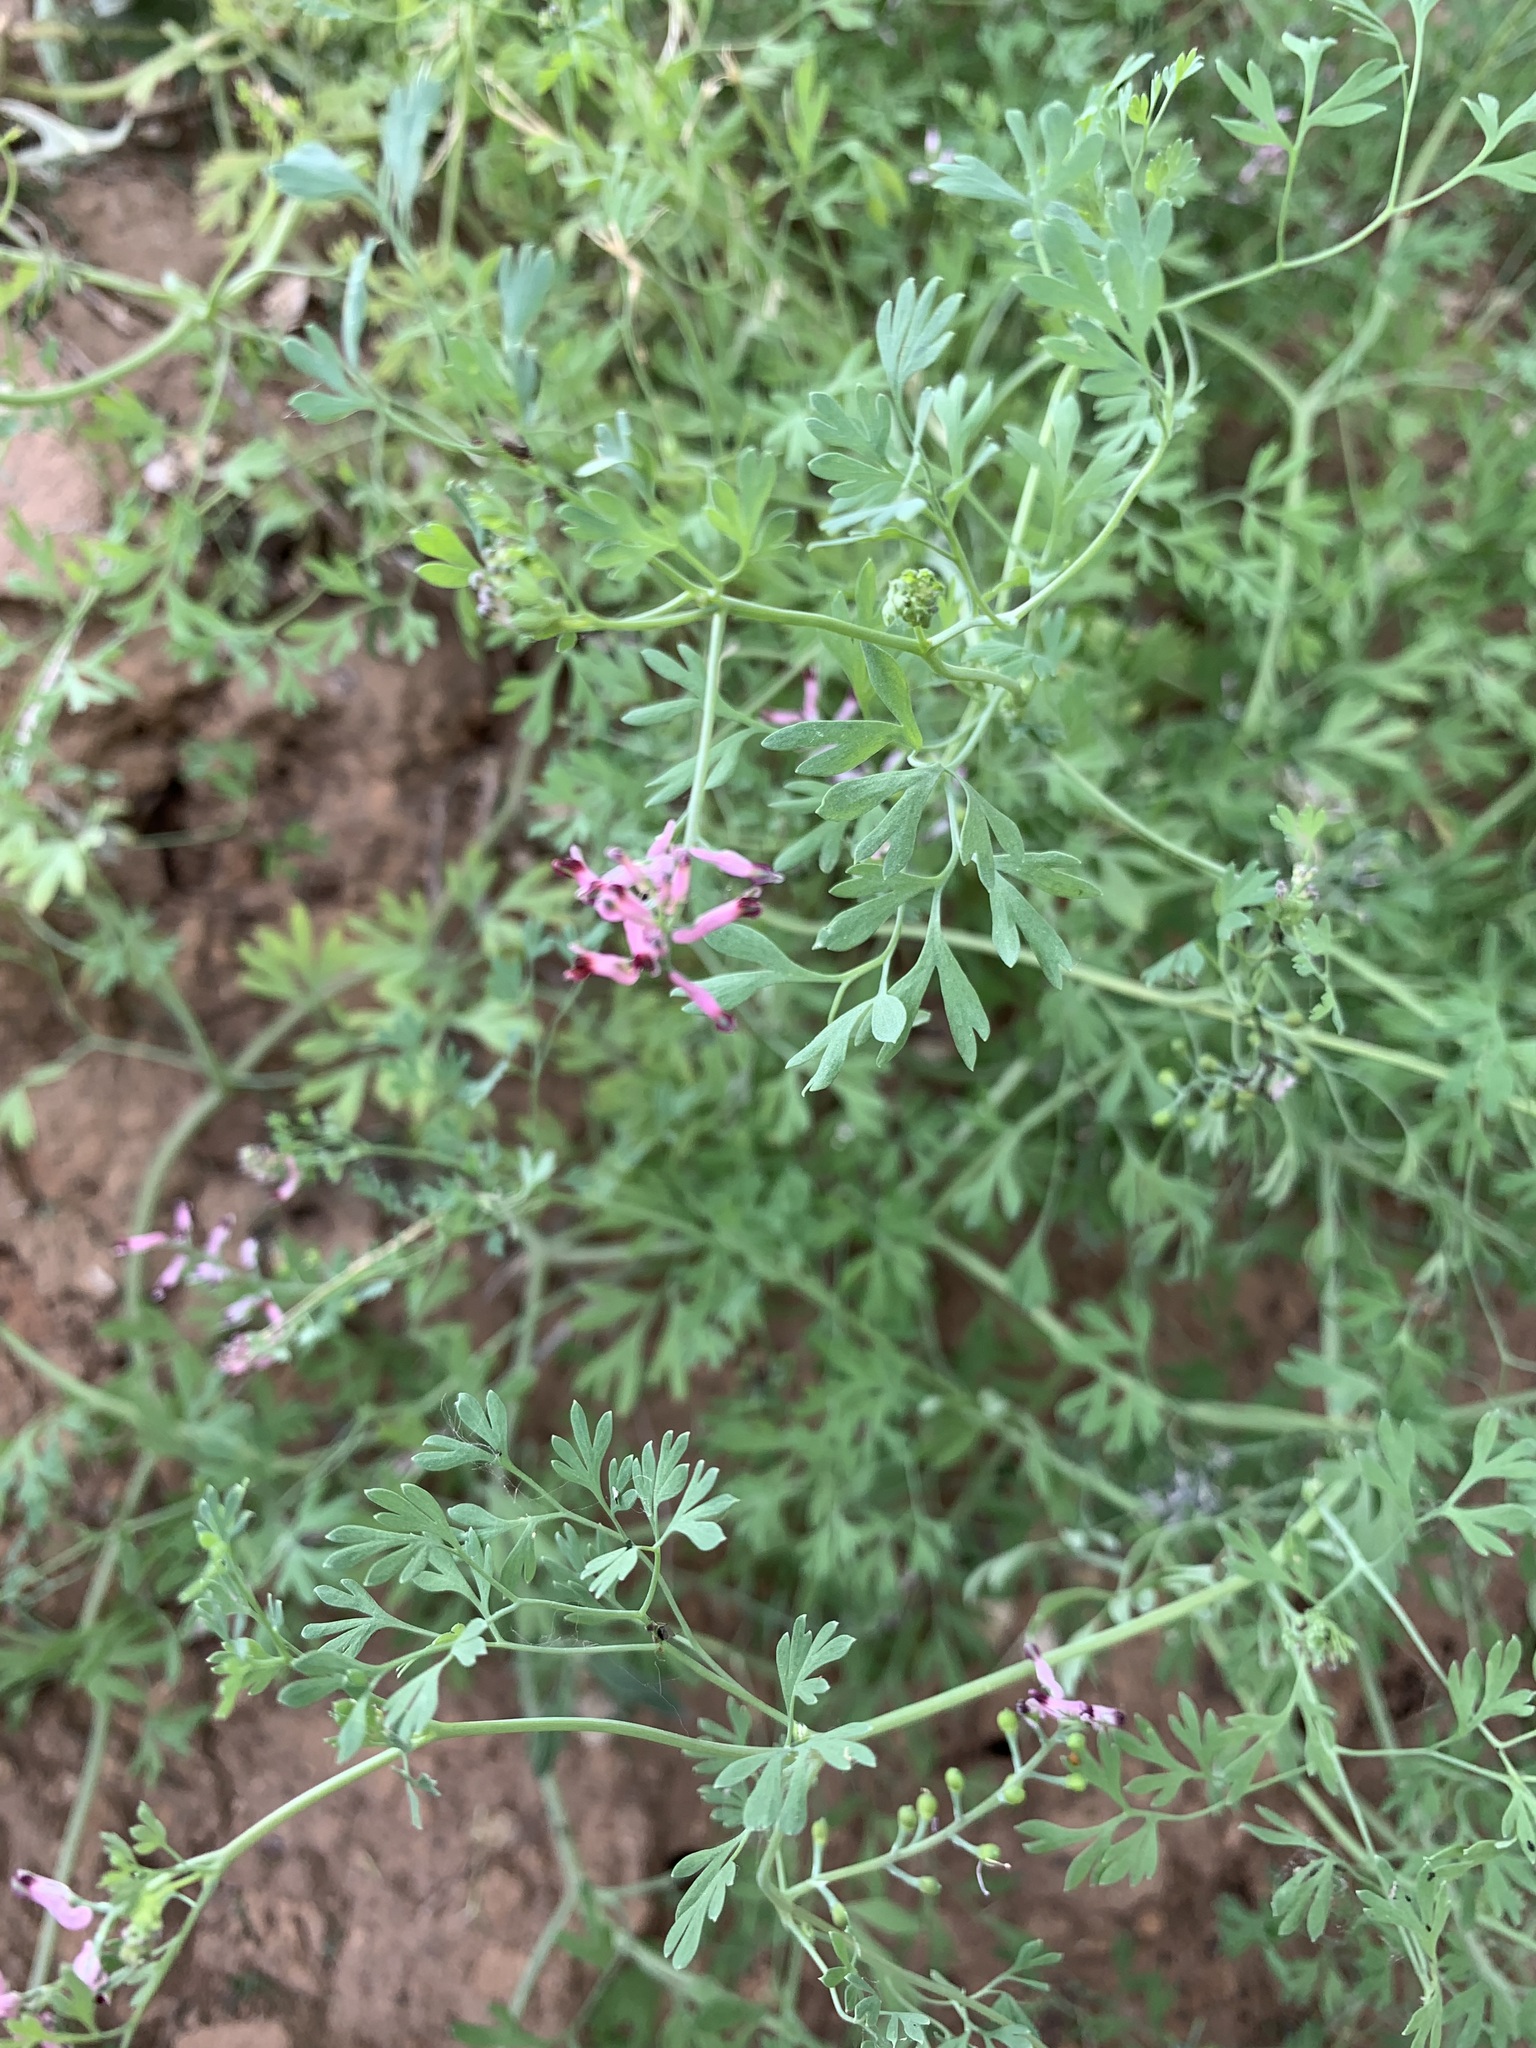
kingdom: Plantae
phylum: Tracheophyta
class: Magnoliopsida
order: Ranunculales
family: Papaveraceae
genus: Fumaria
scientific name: Fumaria schleicheri
